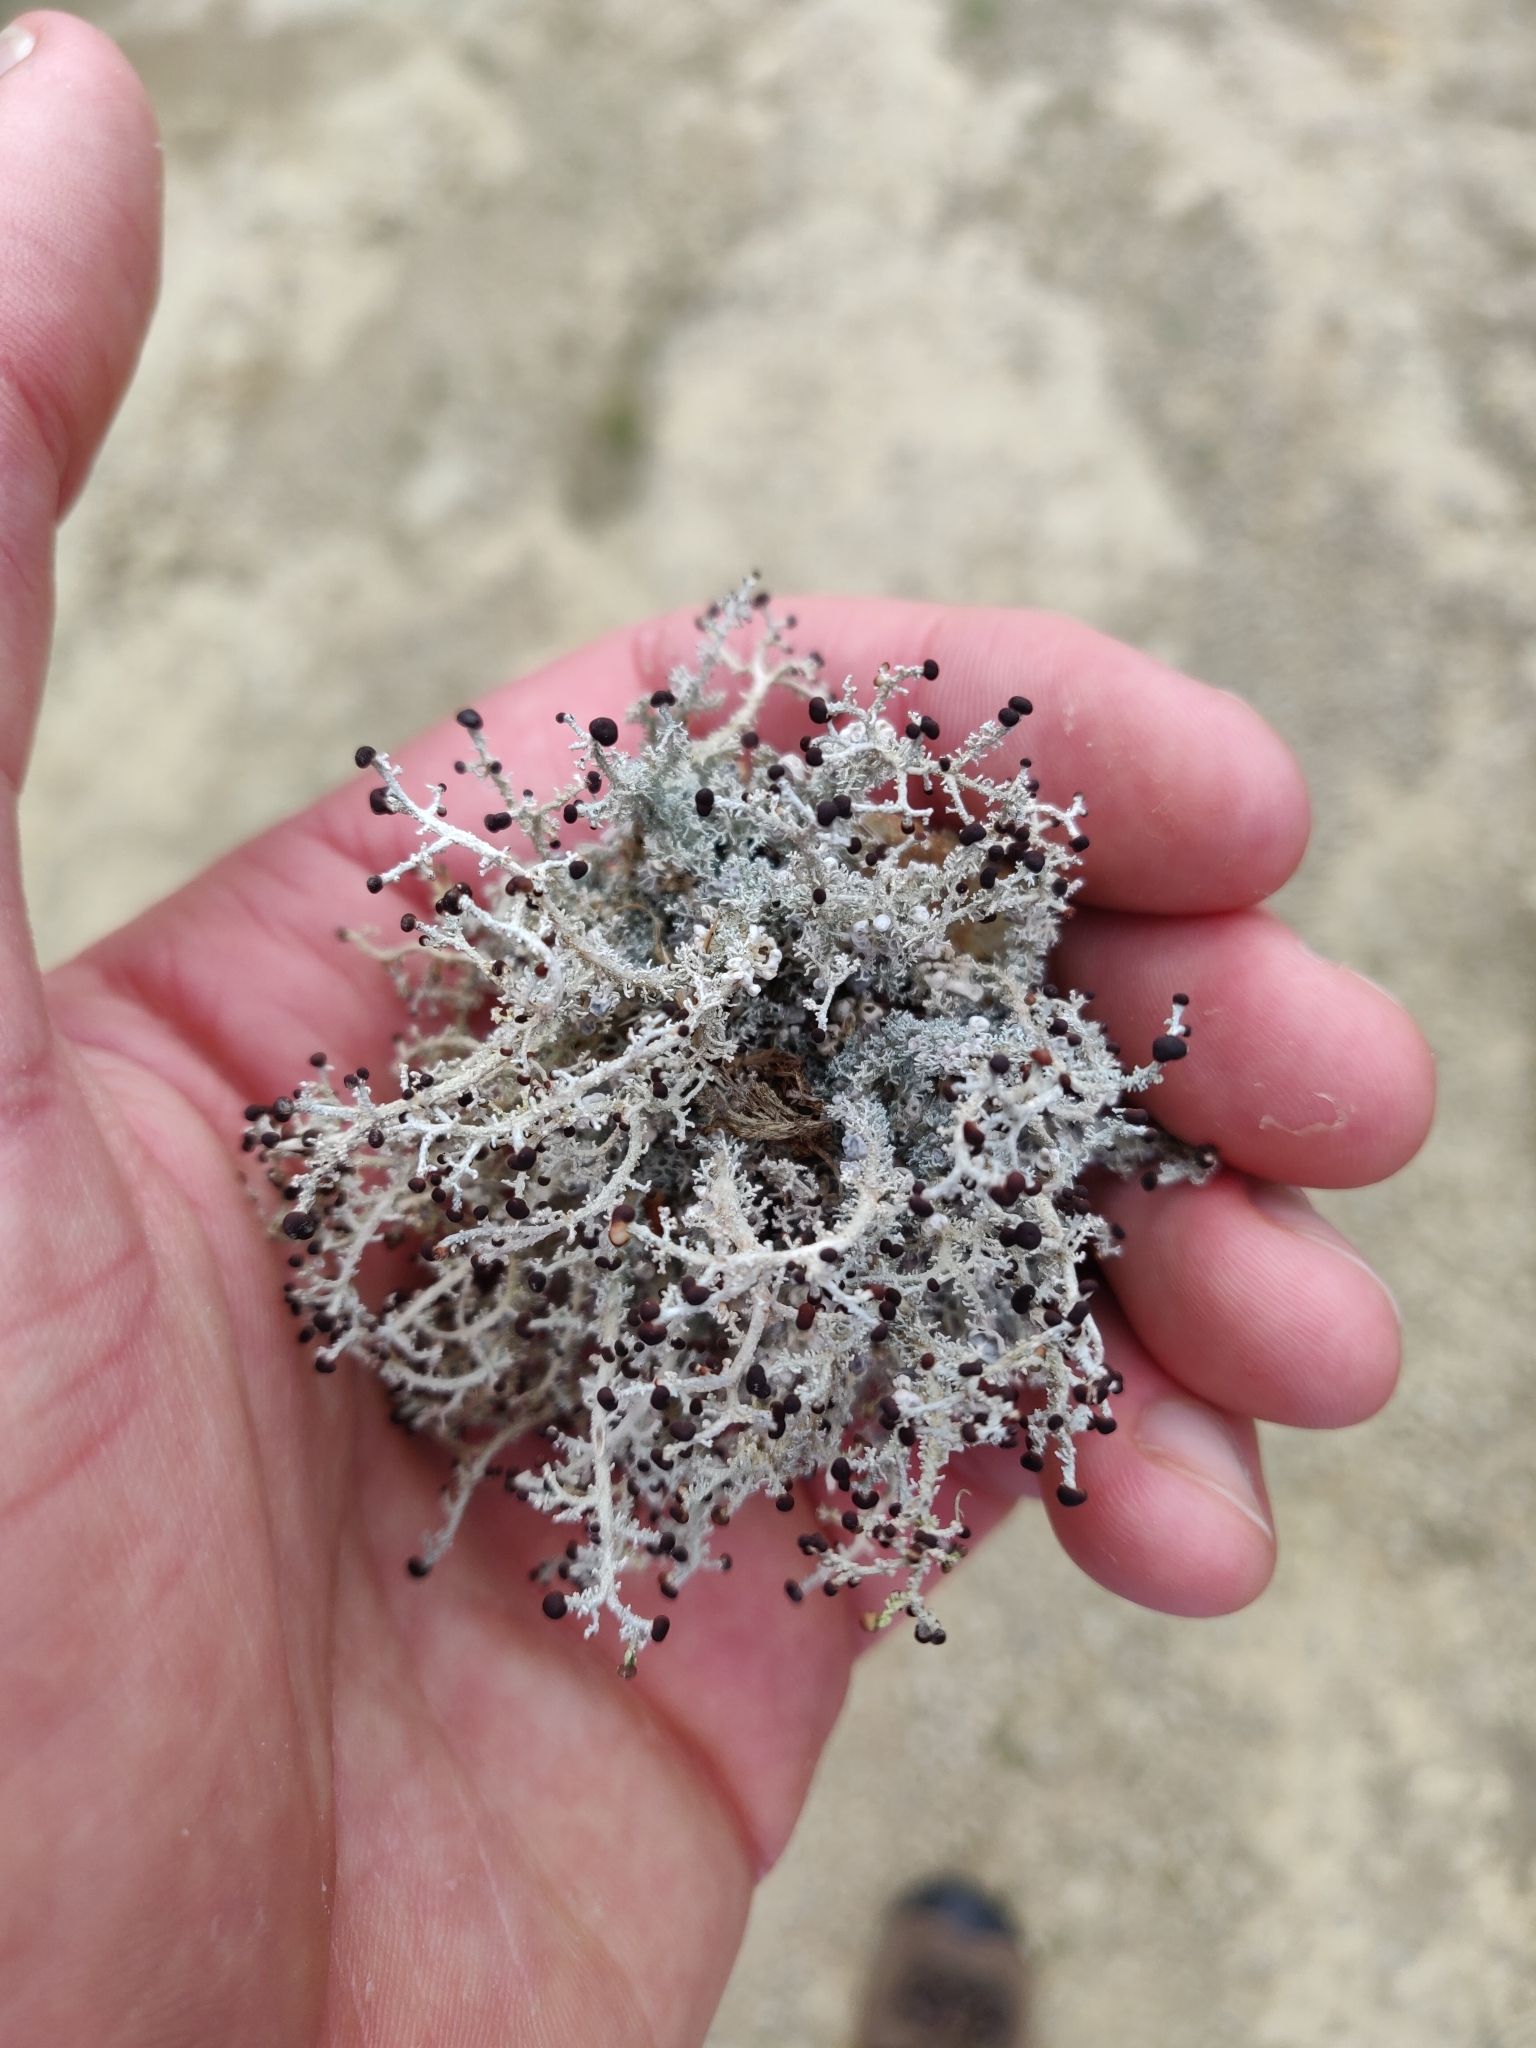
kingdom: Fungi
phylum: Ascomycota
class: Lecanoromycetes
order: Lecanorales
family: Stereocaulaceae
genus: Stereocaulon
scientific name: Stereocaulon ramulosum
